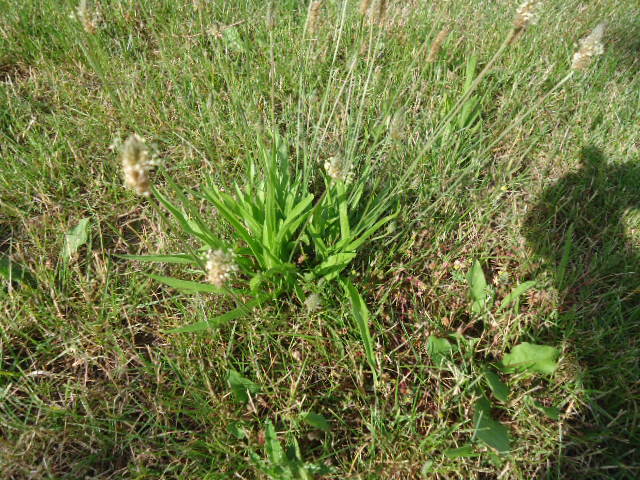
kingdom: Plantae
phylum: Tracheophyta
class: Magnoliopsida
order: Lamiales
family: Plantaginaceae
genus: Plantago
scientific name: Plantago lanceolata
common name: Ribwort plantain
